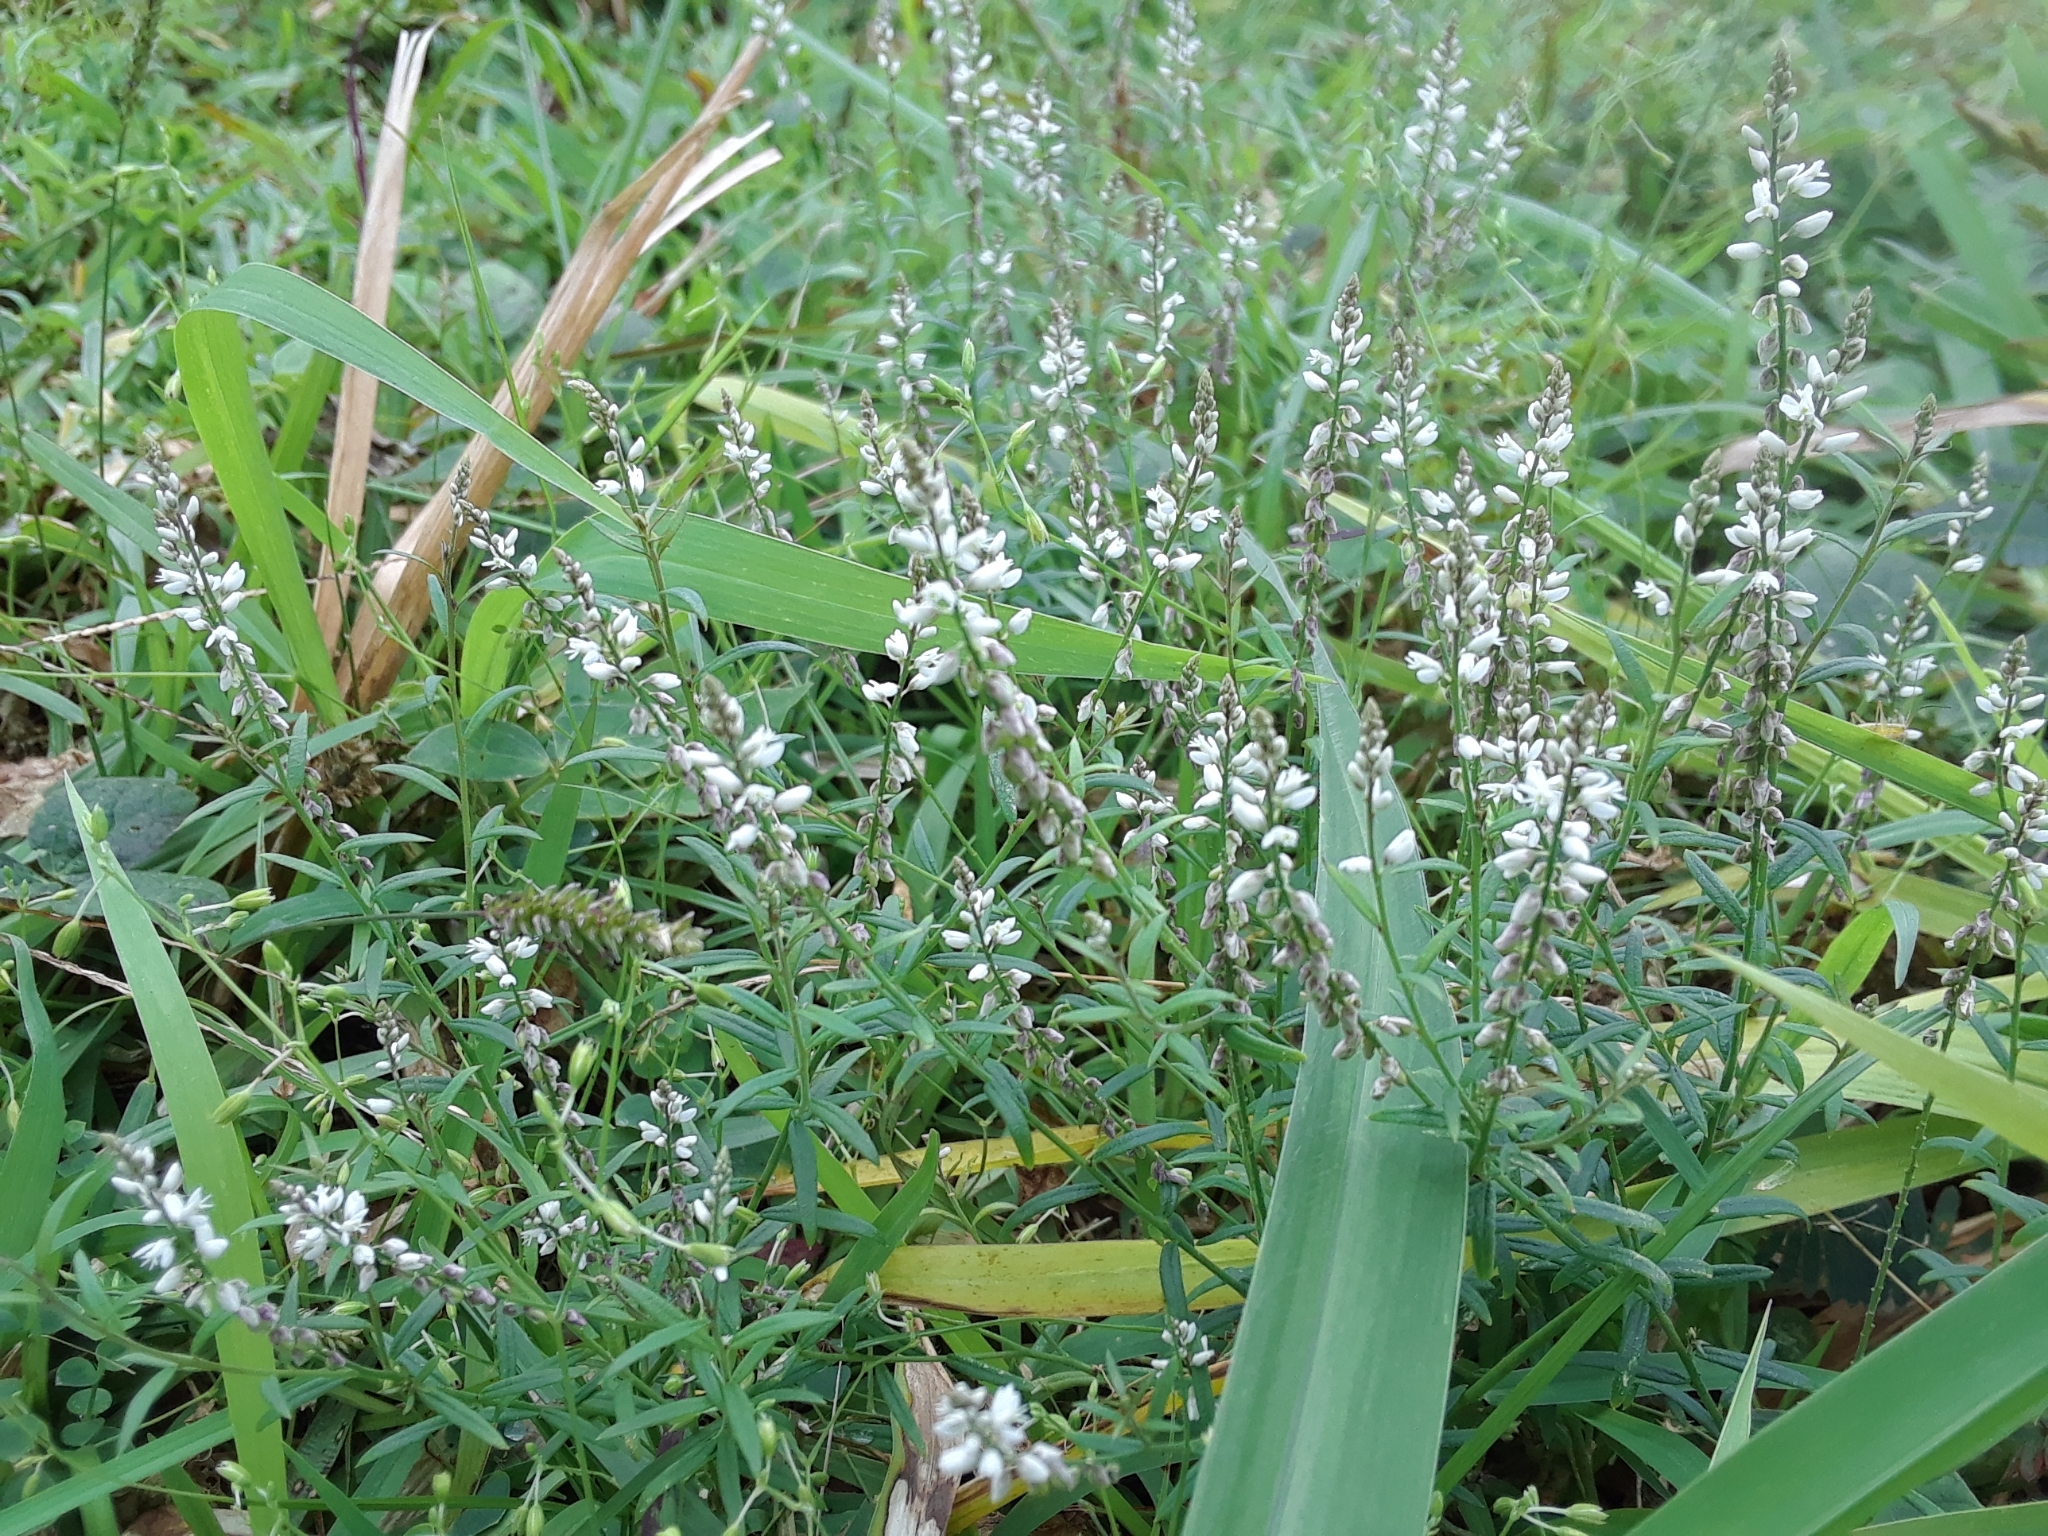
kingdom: Plantae
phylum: Tracheophyta
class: Magnoliopsida
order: Fabales
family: Polygalaceae
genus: Polygala
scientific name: Polygala paniculata
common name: Orosne
